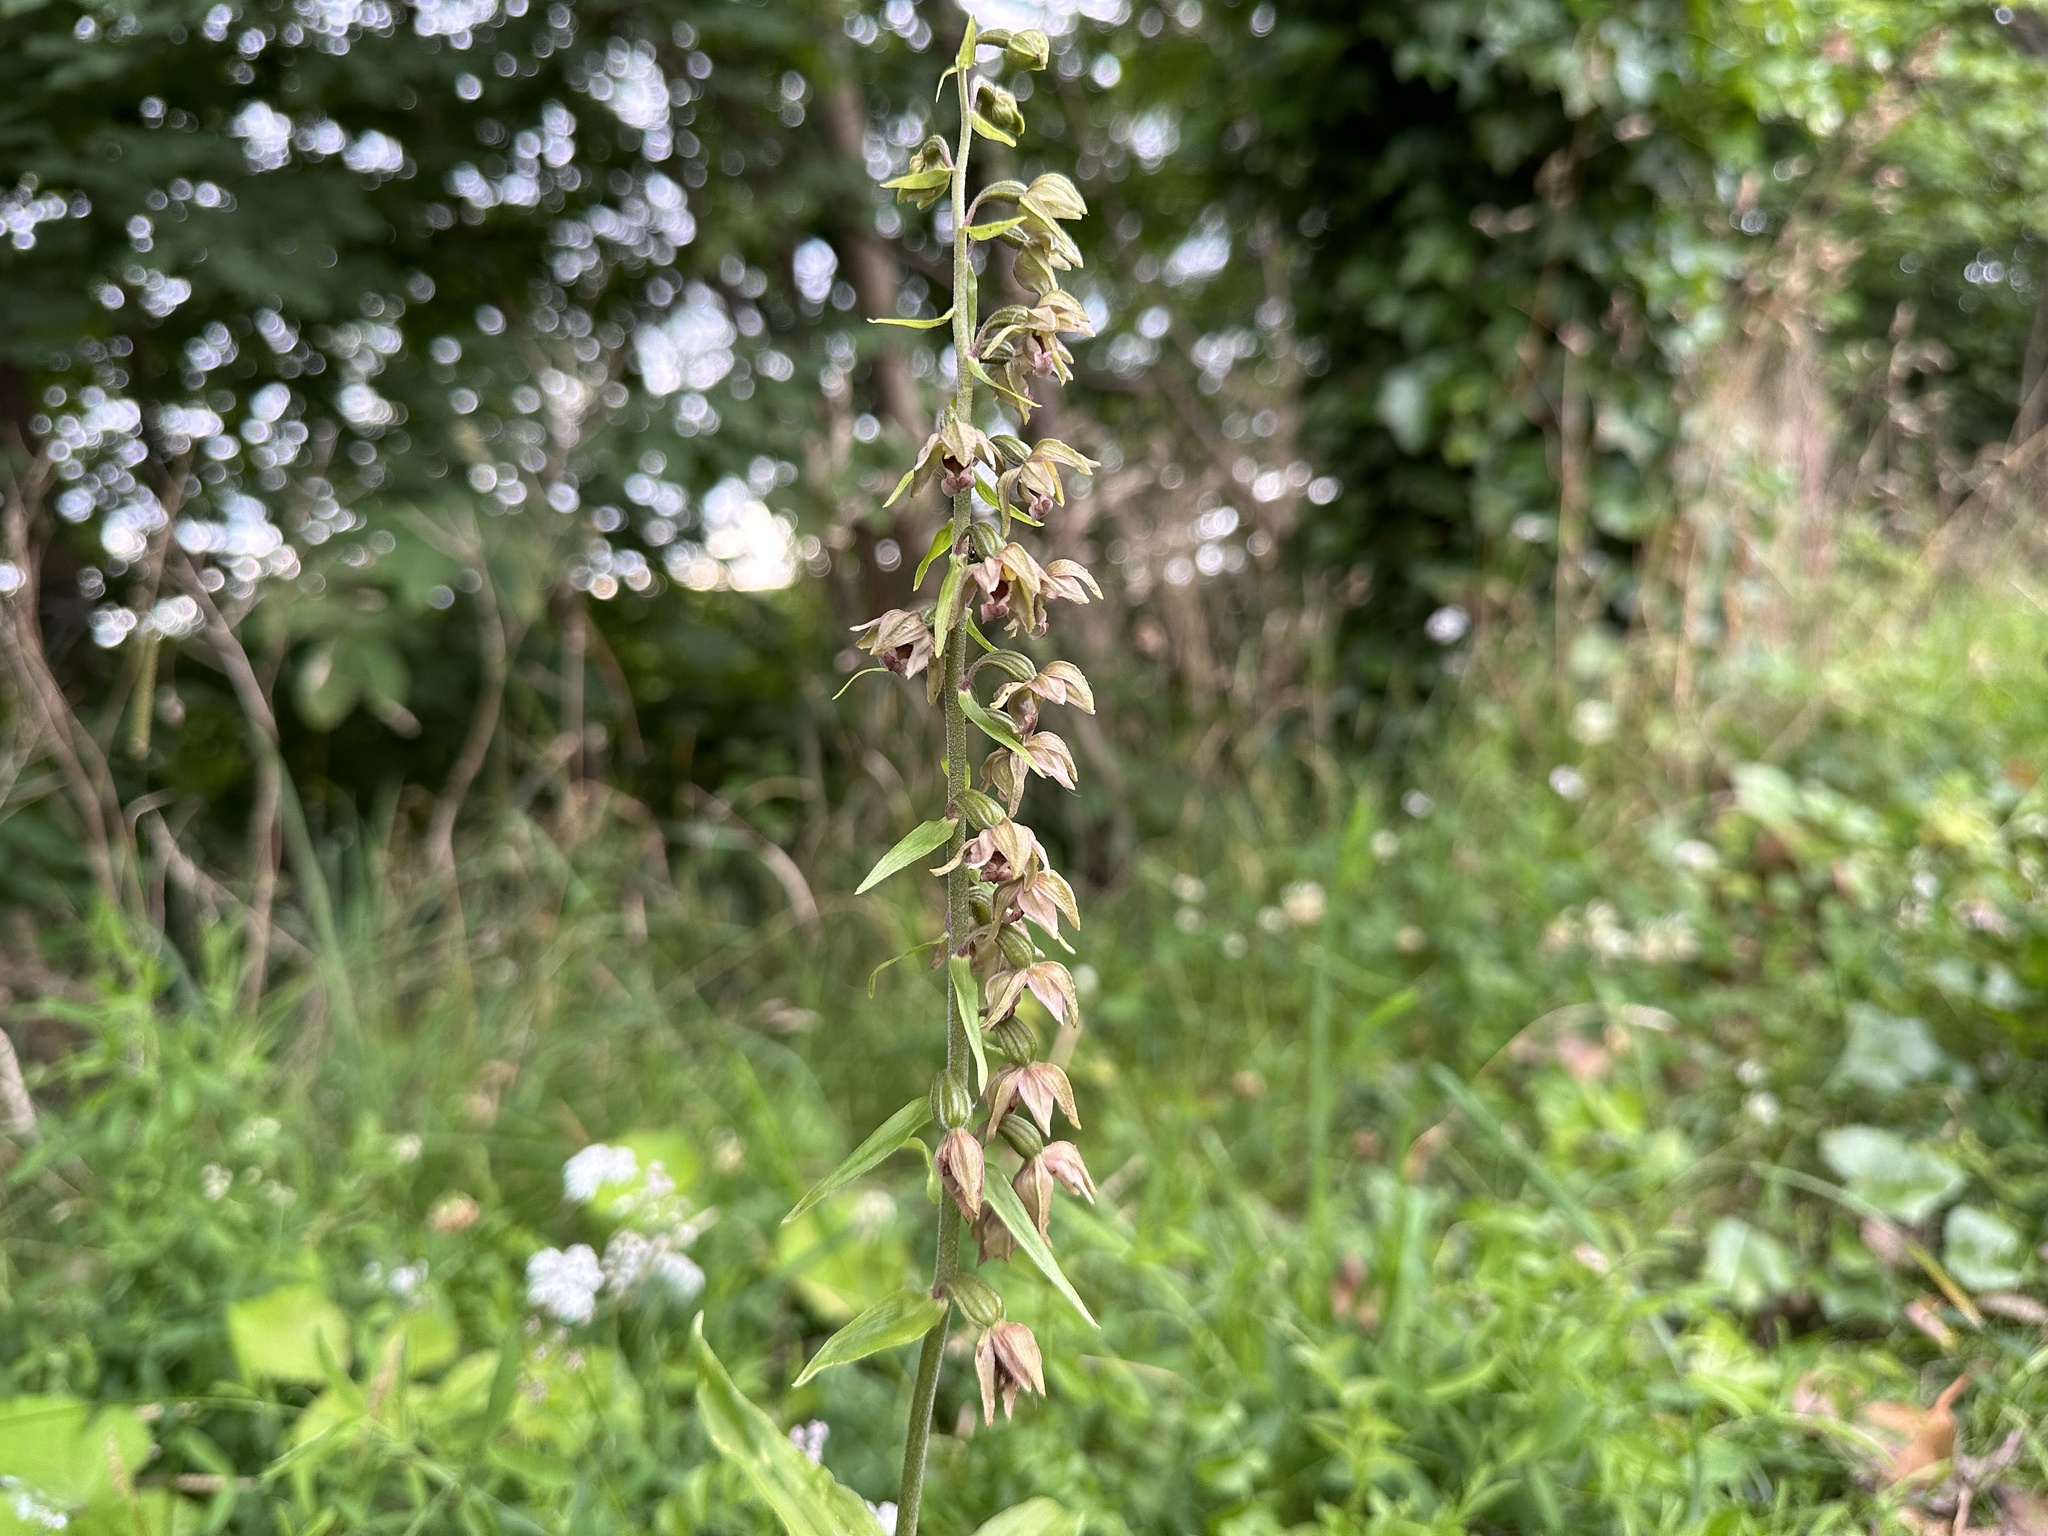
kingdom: Plantae
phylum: Tracheophyta
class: Liliopsida
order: Asparagales
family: Orchidaceae
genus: Epipactis
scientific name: Epipactis helleborine
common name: Broad-leaved helleborine
